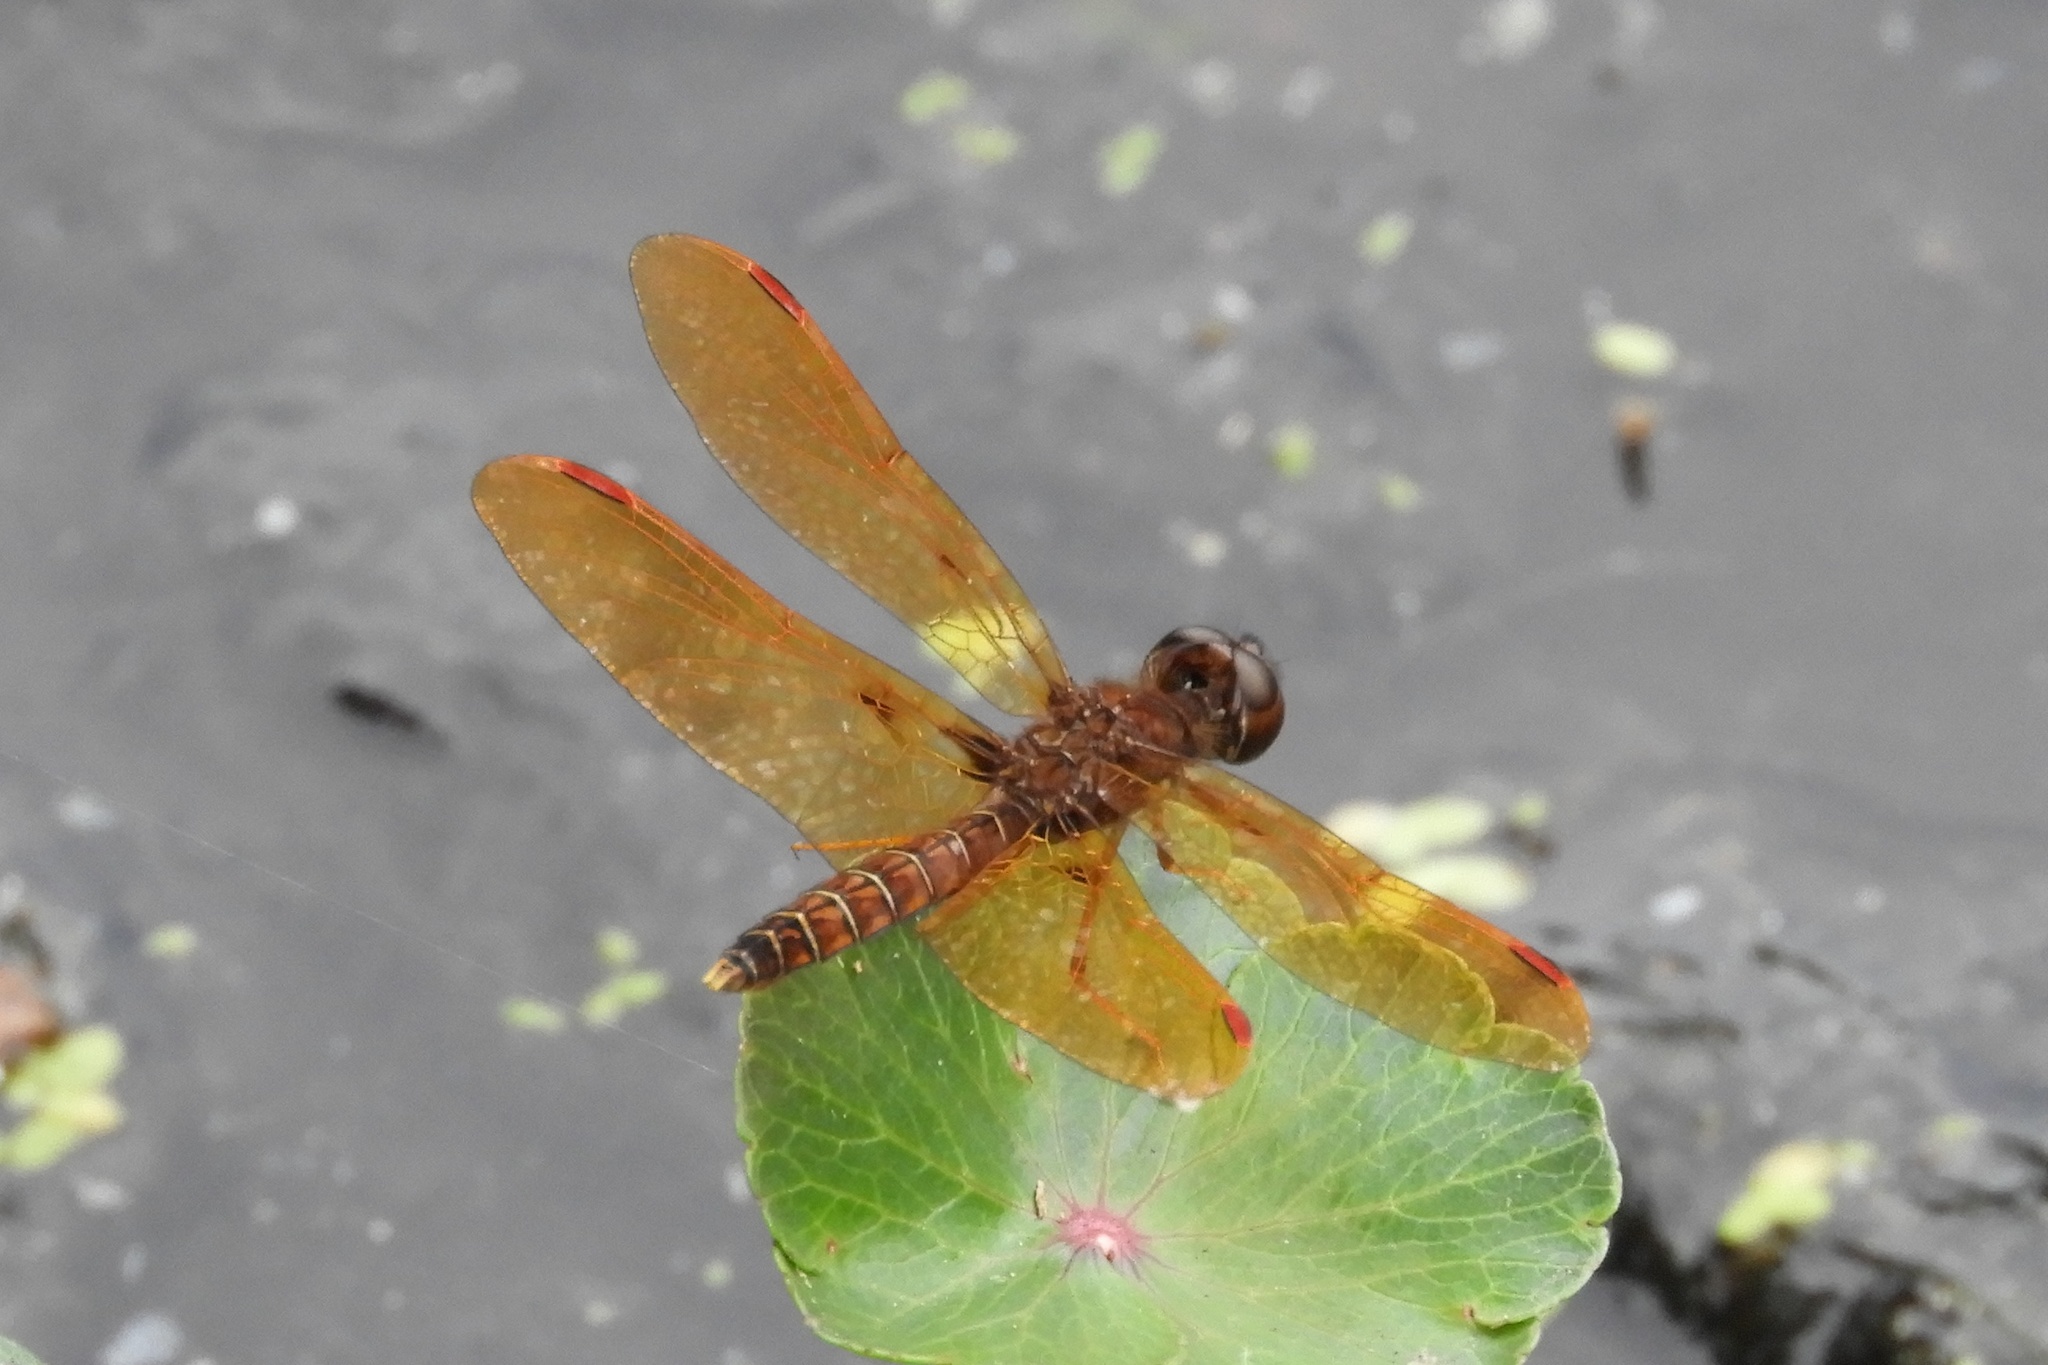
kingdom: Animalia
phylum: Arthropoda
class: Insecta
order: Odonata
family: Libellulidae
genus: Perithemis
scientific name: Perithemis tenera
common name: Eastern amberwing
